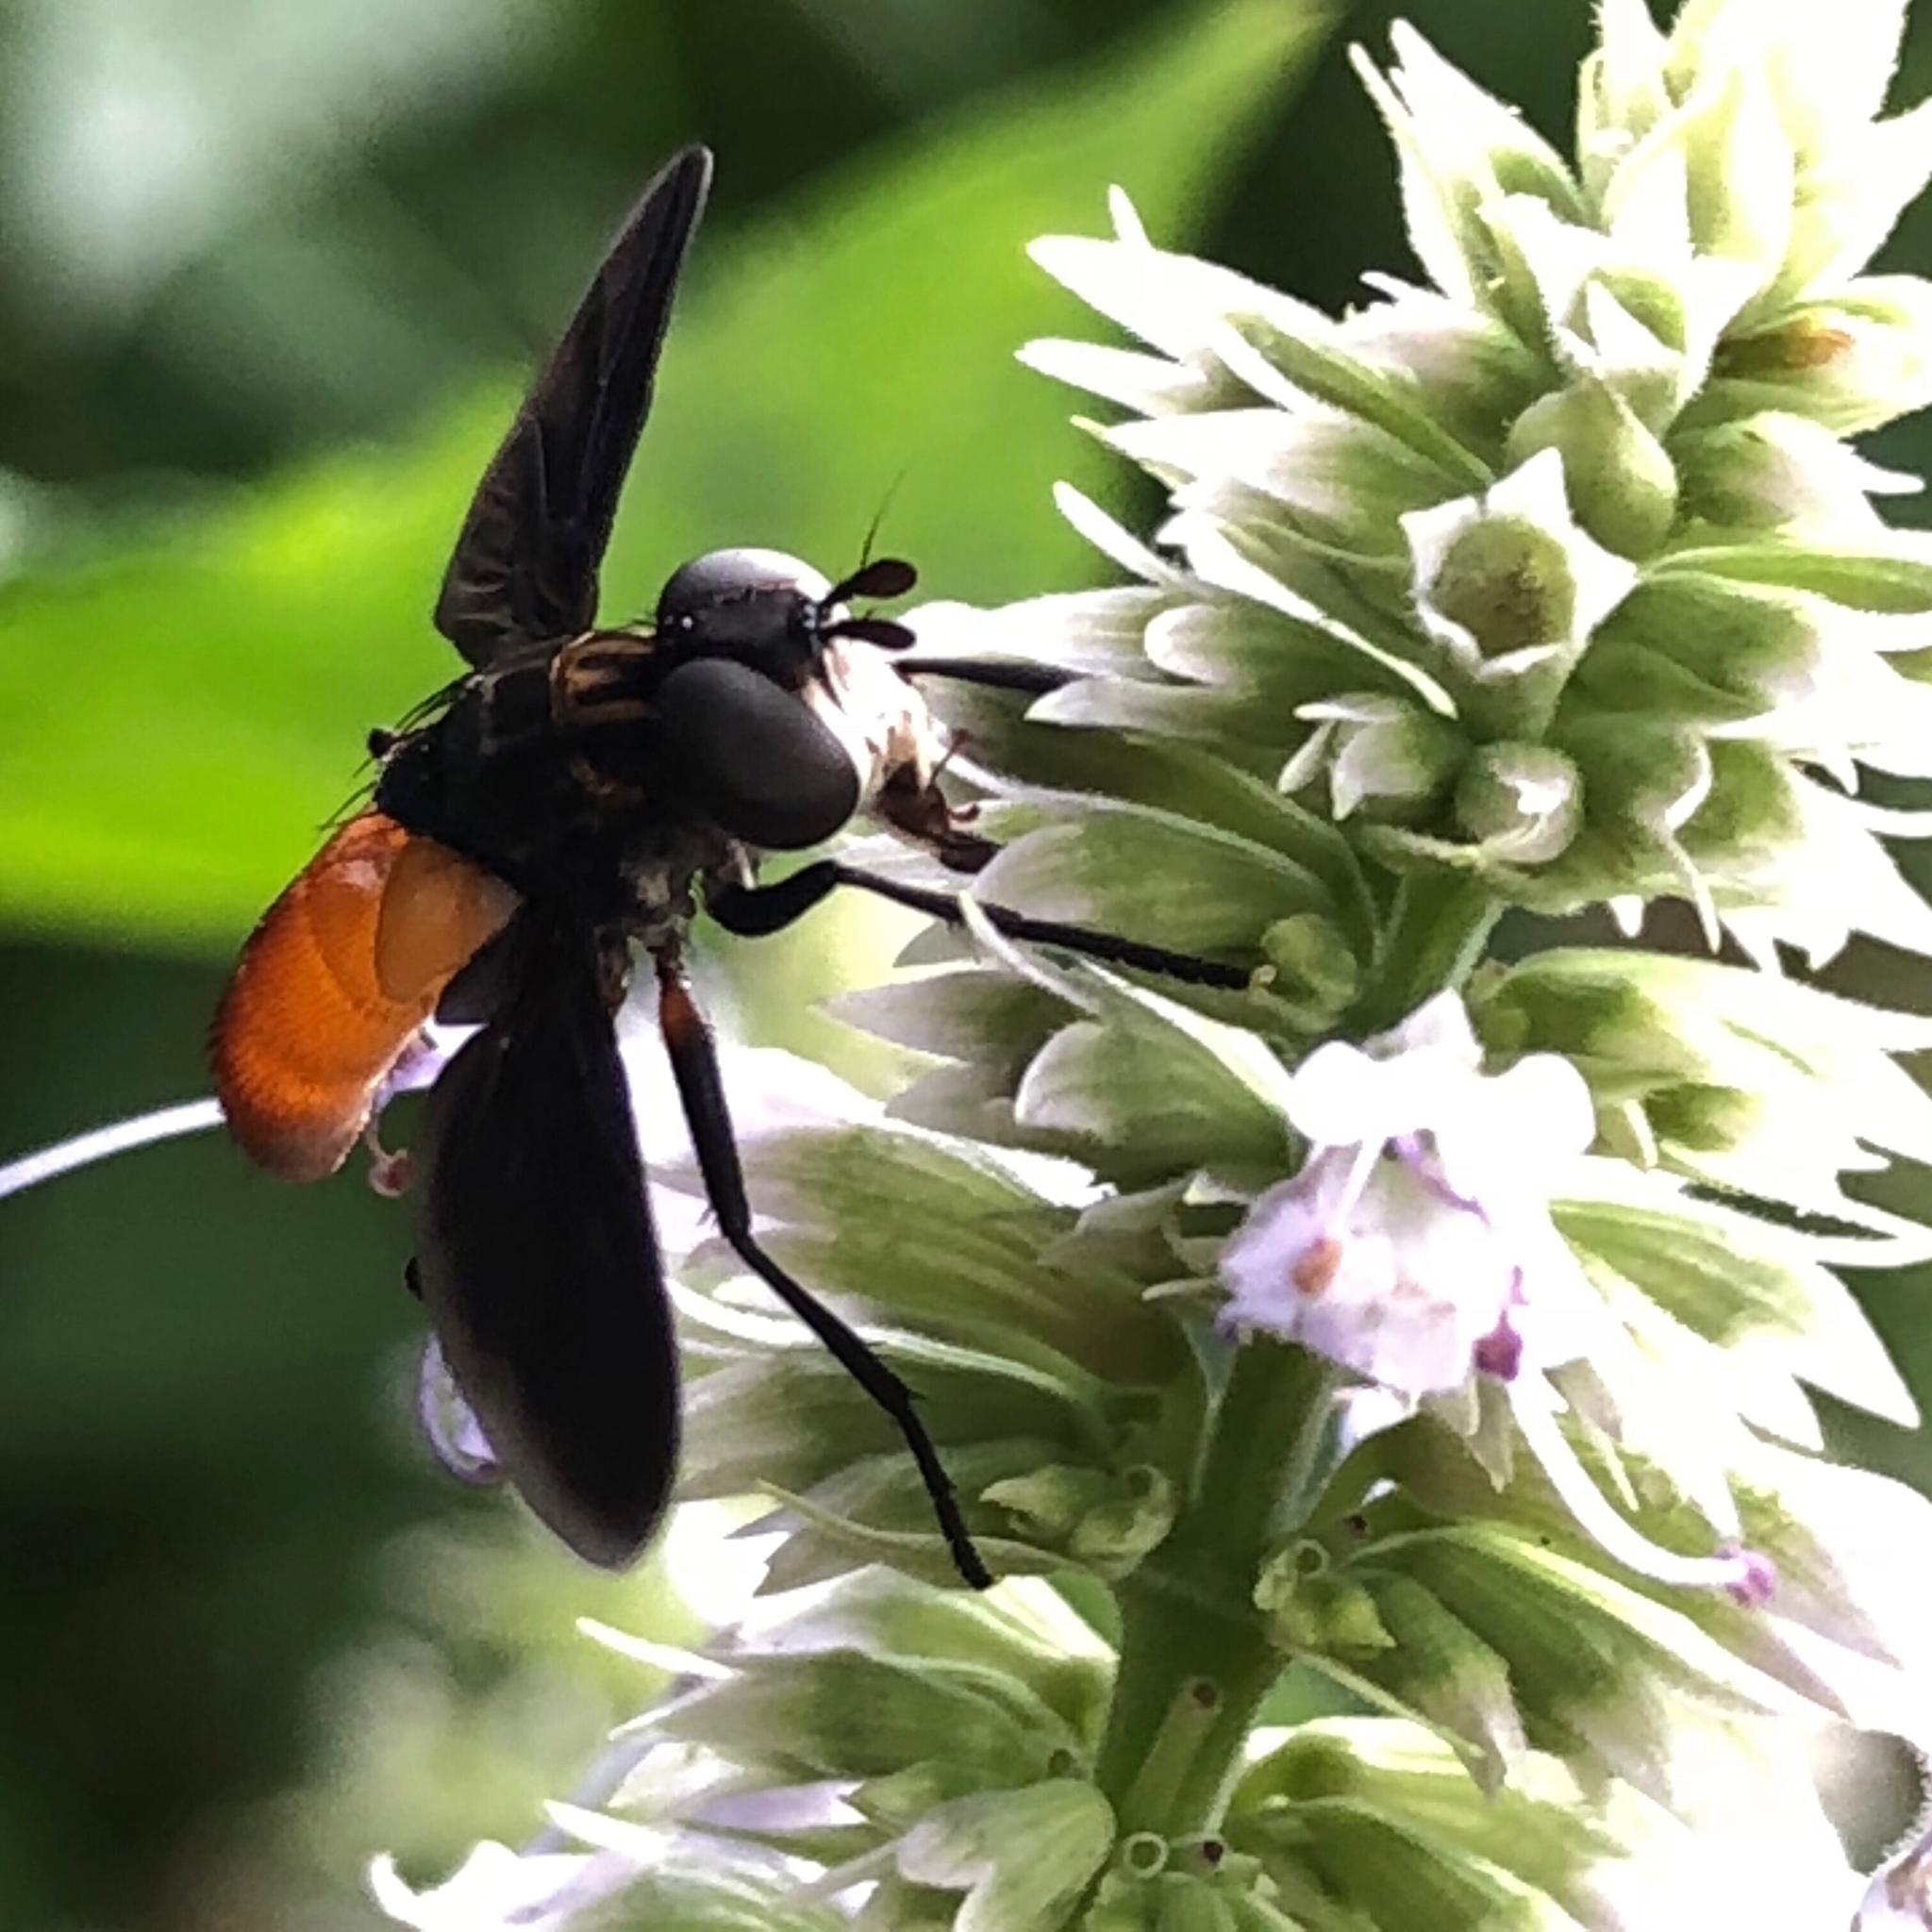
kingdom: Animalia
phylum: Arthropoda
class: Insecta
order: Diptera
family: Tachinidae
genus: Trichopoda
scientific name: Trichopoda pennipes
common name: Tachinid fly
